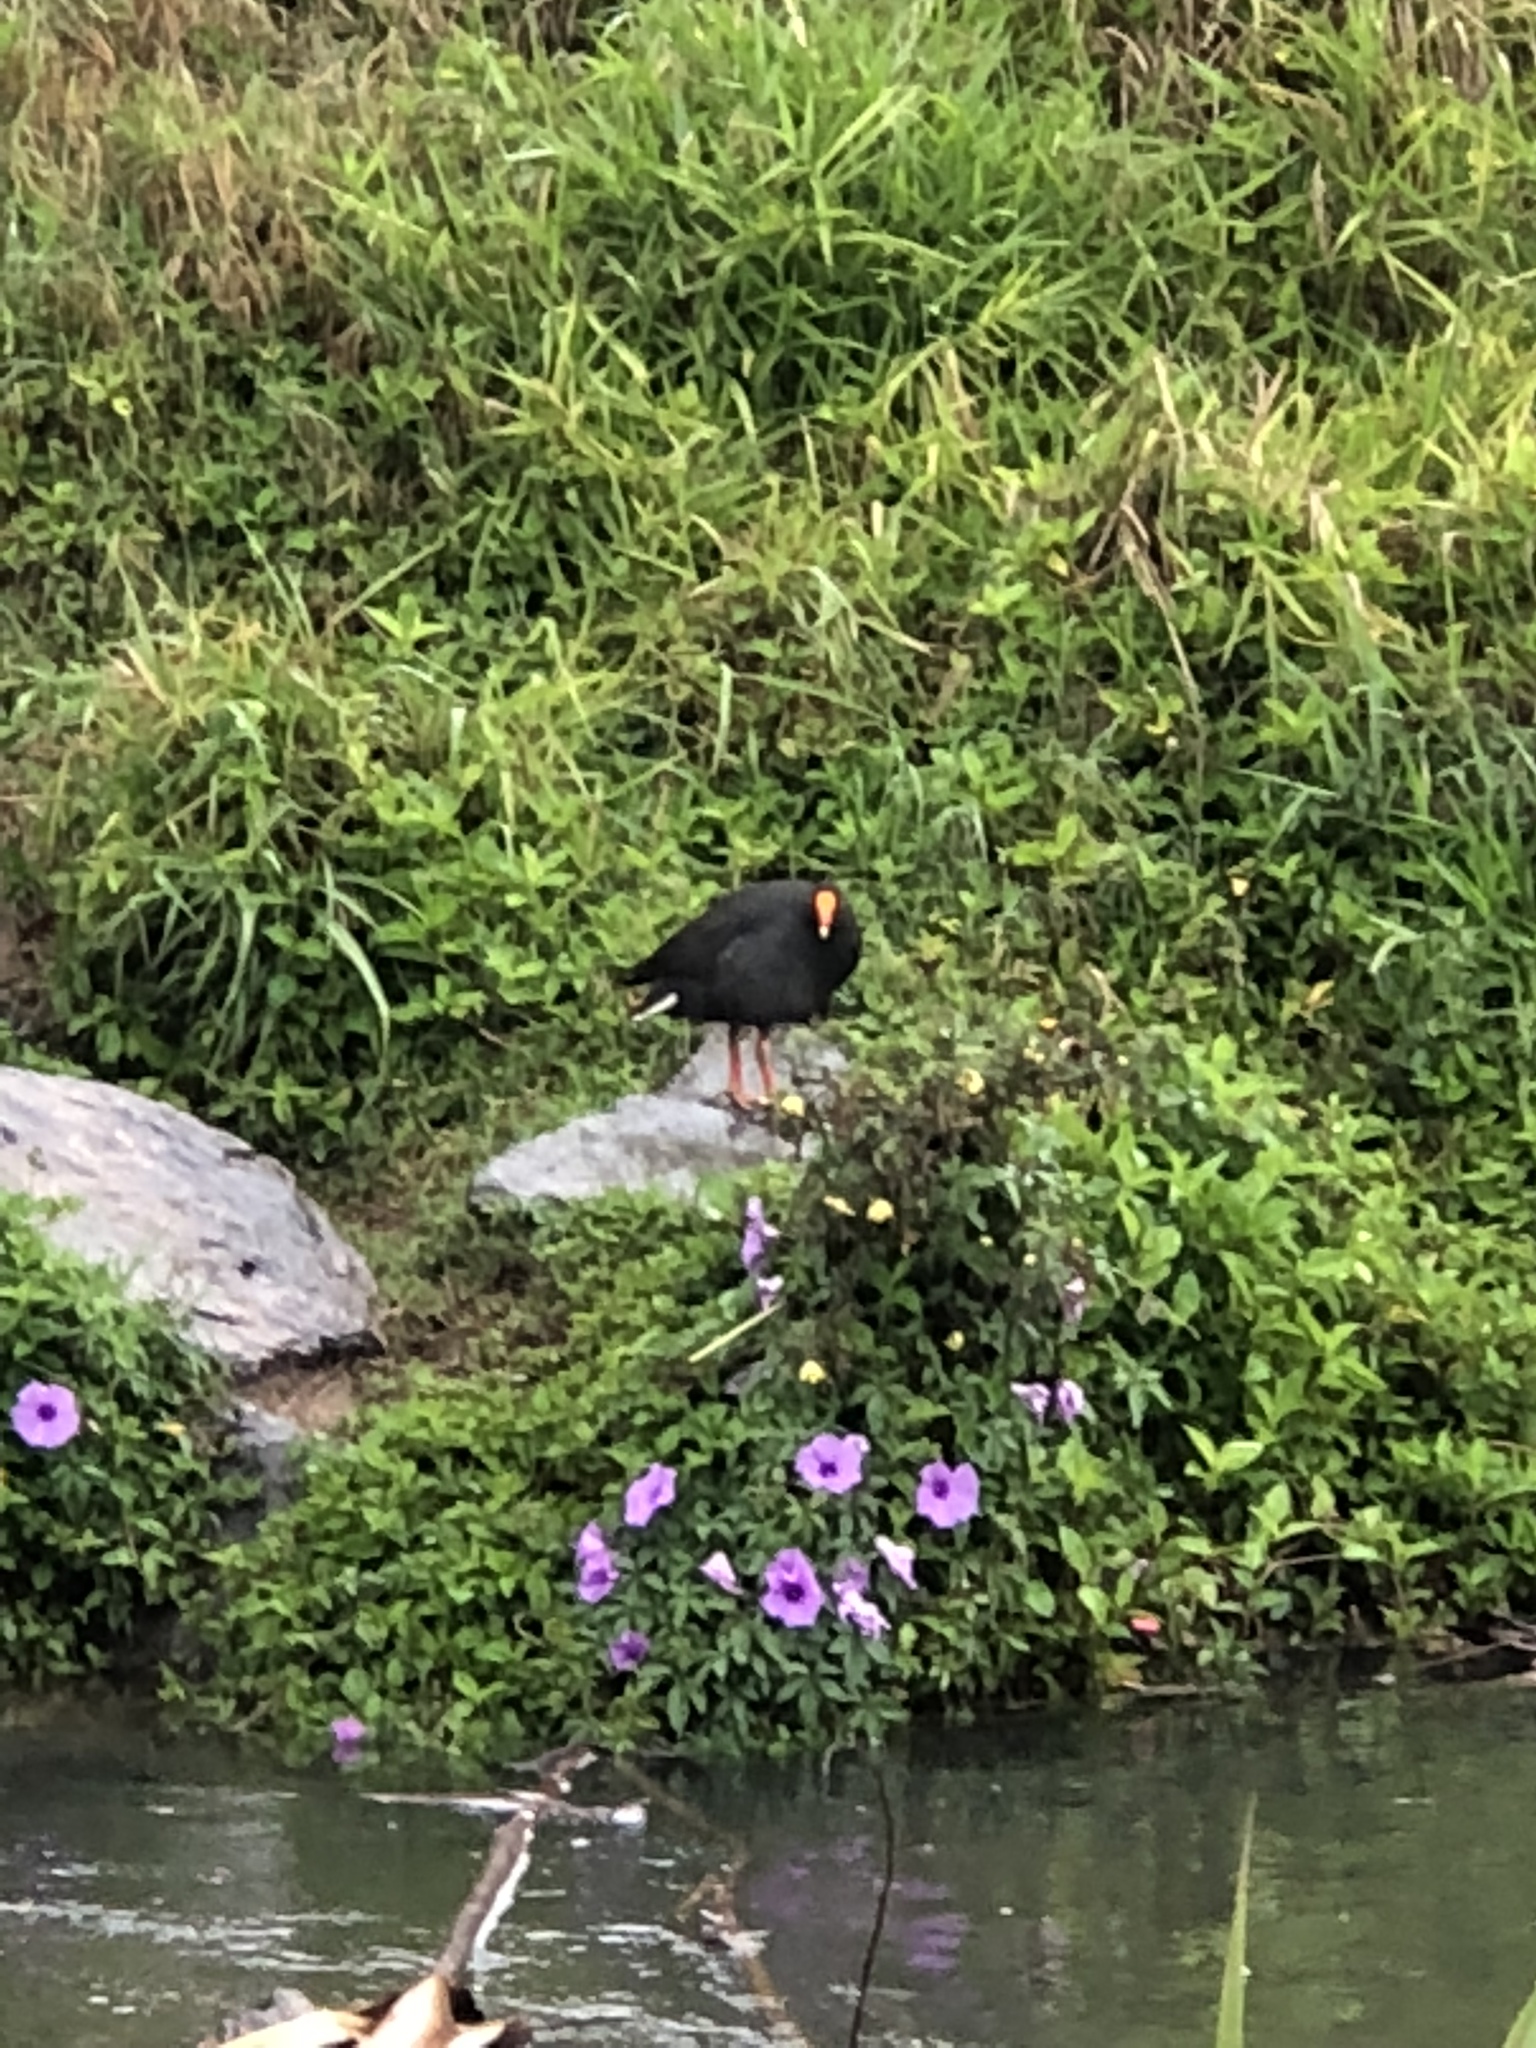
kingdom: Animalia
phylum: Chordata
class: Aves
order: Gruiformes
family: Rallidae
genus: Gallinula
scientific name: Gallinula tenebrosa
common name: Dusky moorhen
